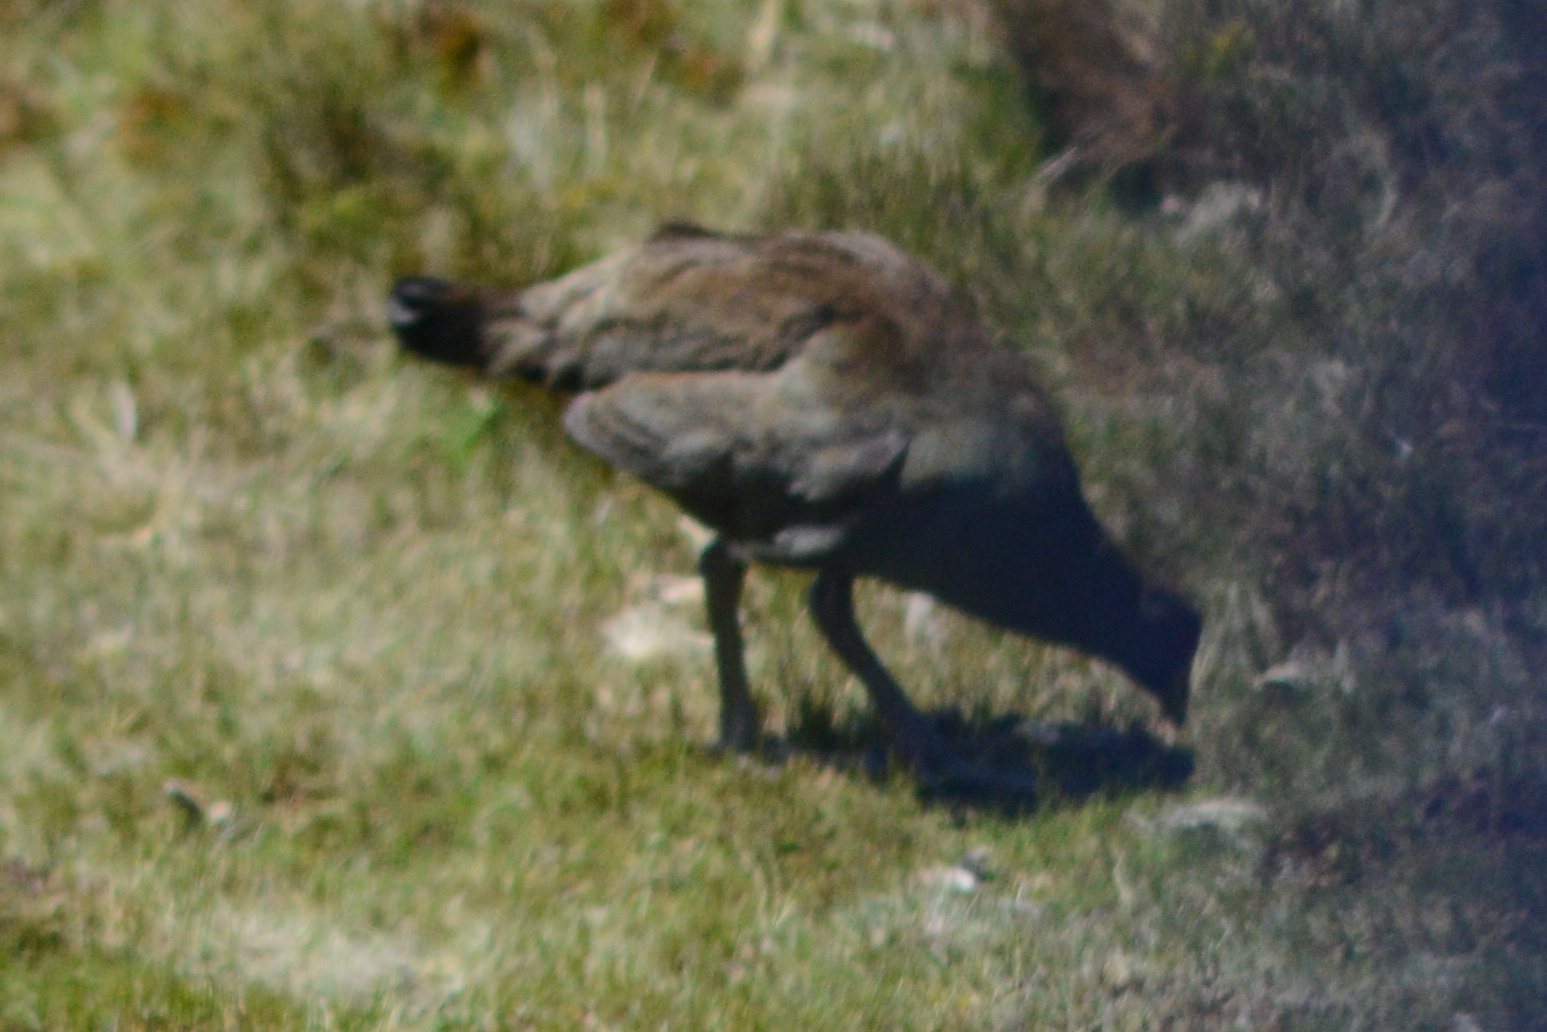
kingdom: Animalia
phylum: Chordata
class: Aves
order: Gruiformes
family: Rallidae
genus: Gallinula
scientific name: Gallinula mortierii
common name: Tasmanian nativehen
